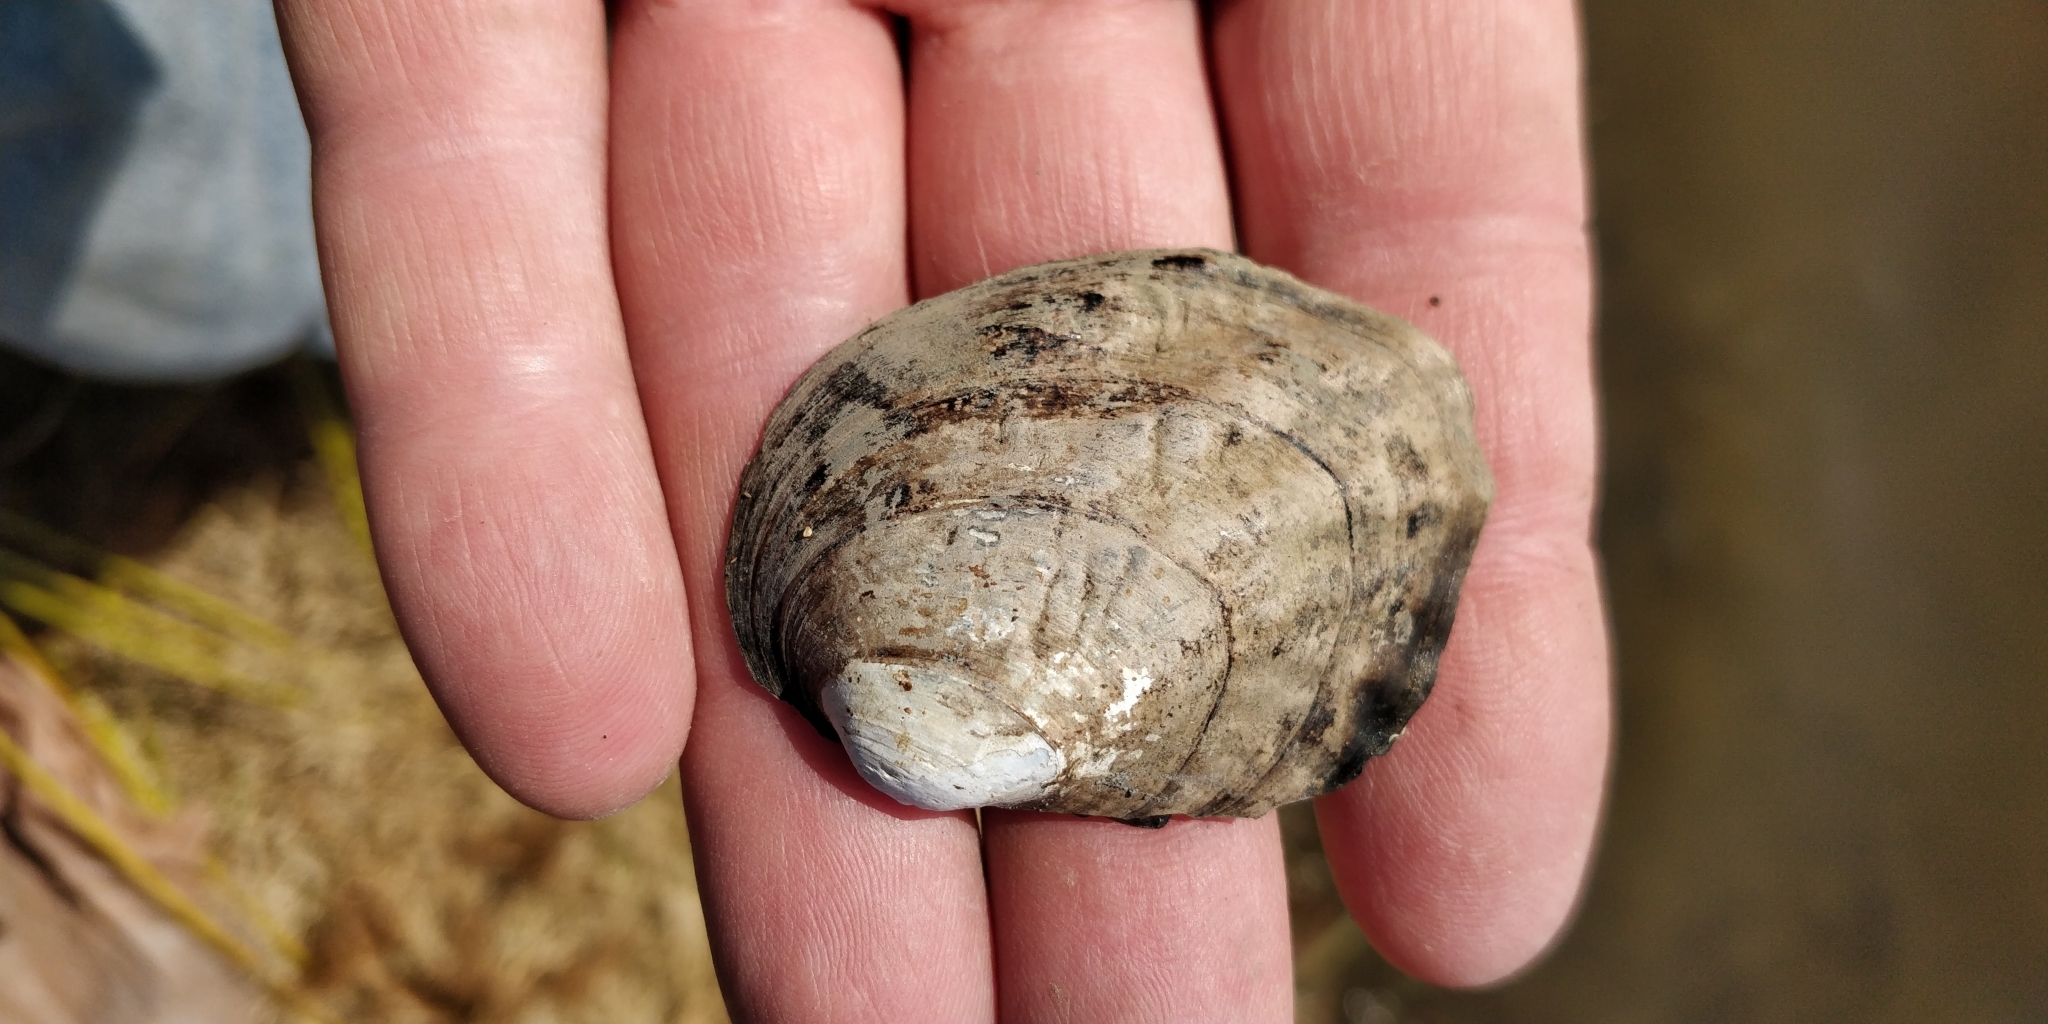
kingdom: Animalia
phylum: Mollusca
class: Bivalvia
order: Unionida
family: Unionidae
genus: Amblema
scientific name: Amblema plicata
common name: Threeridge
